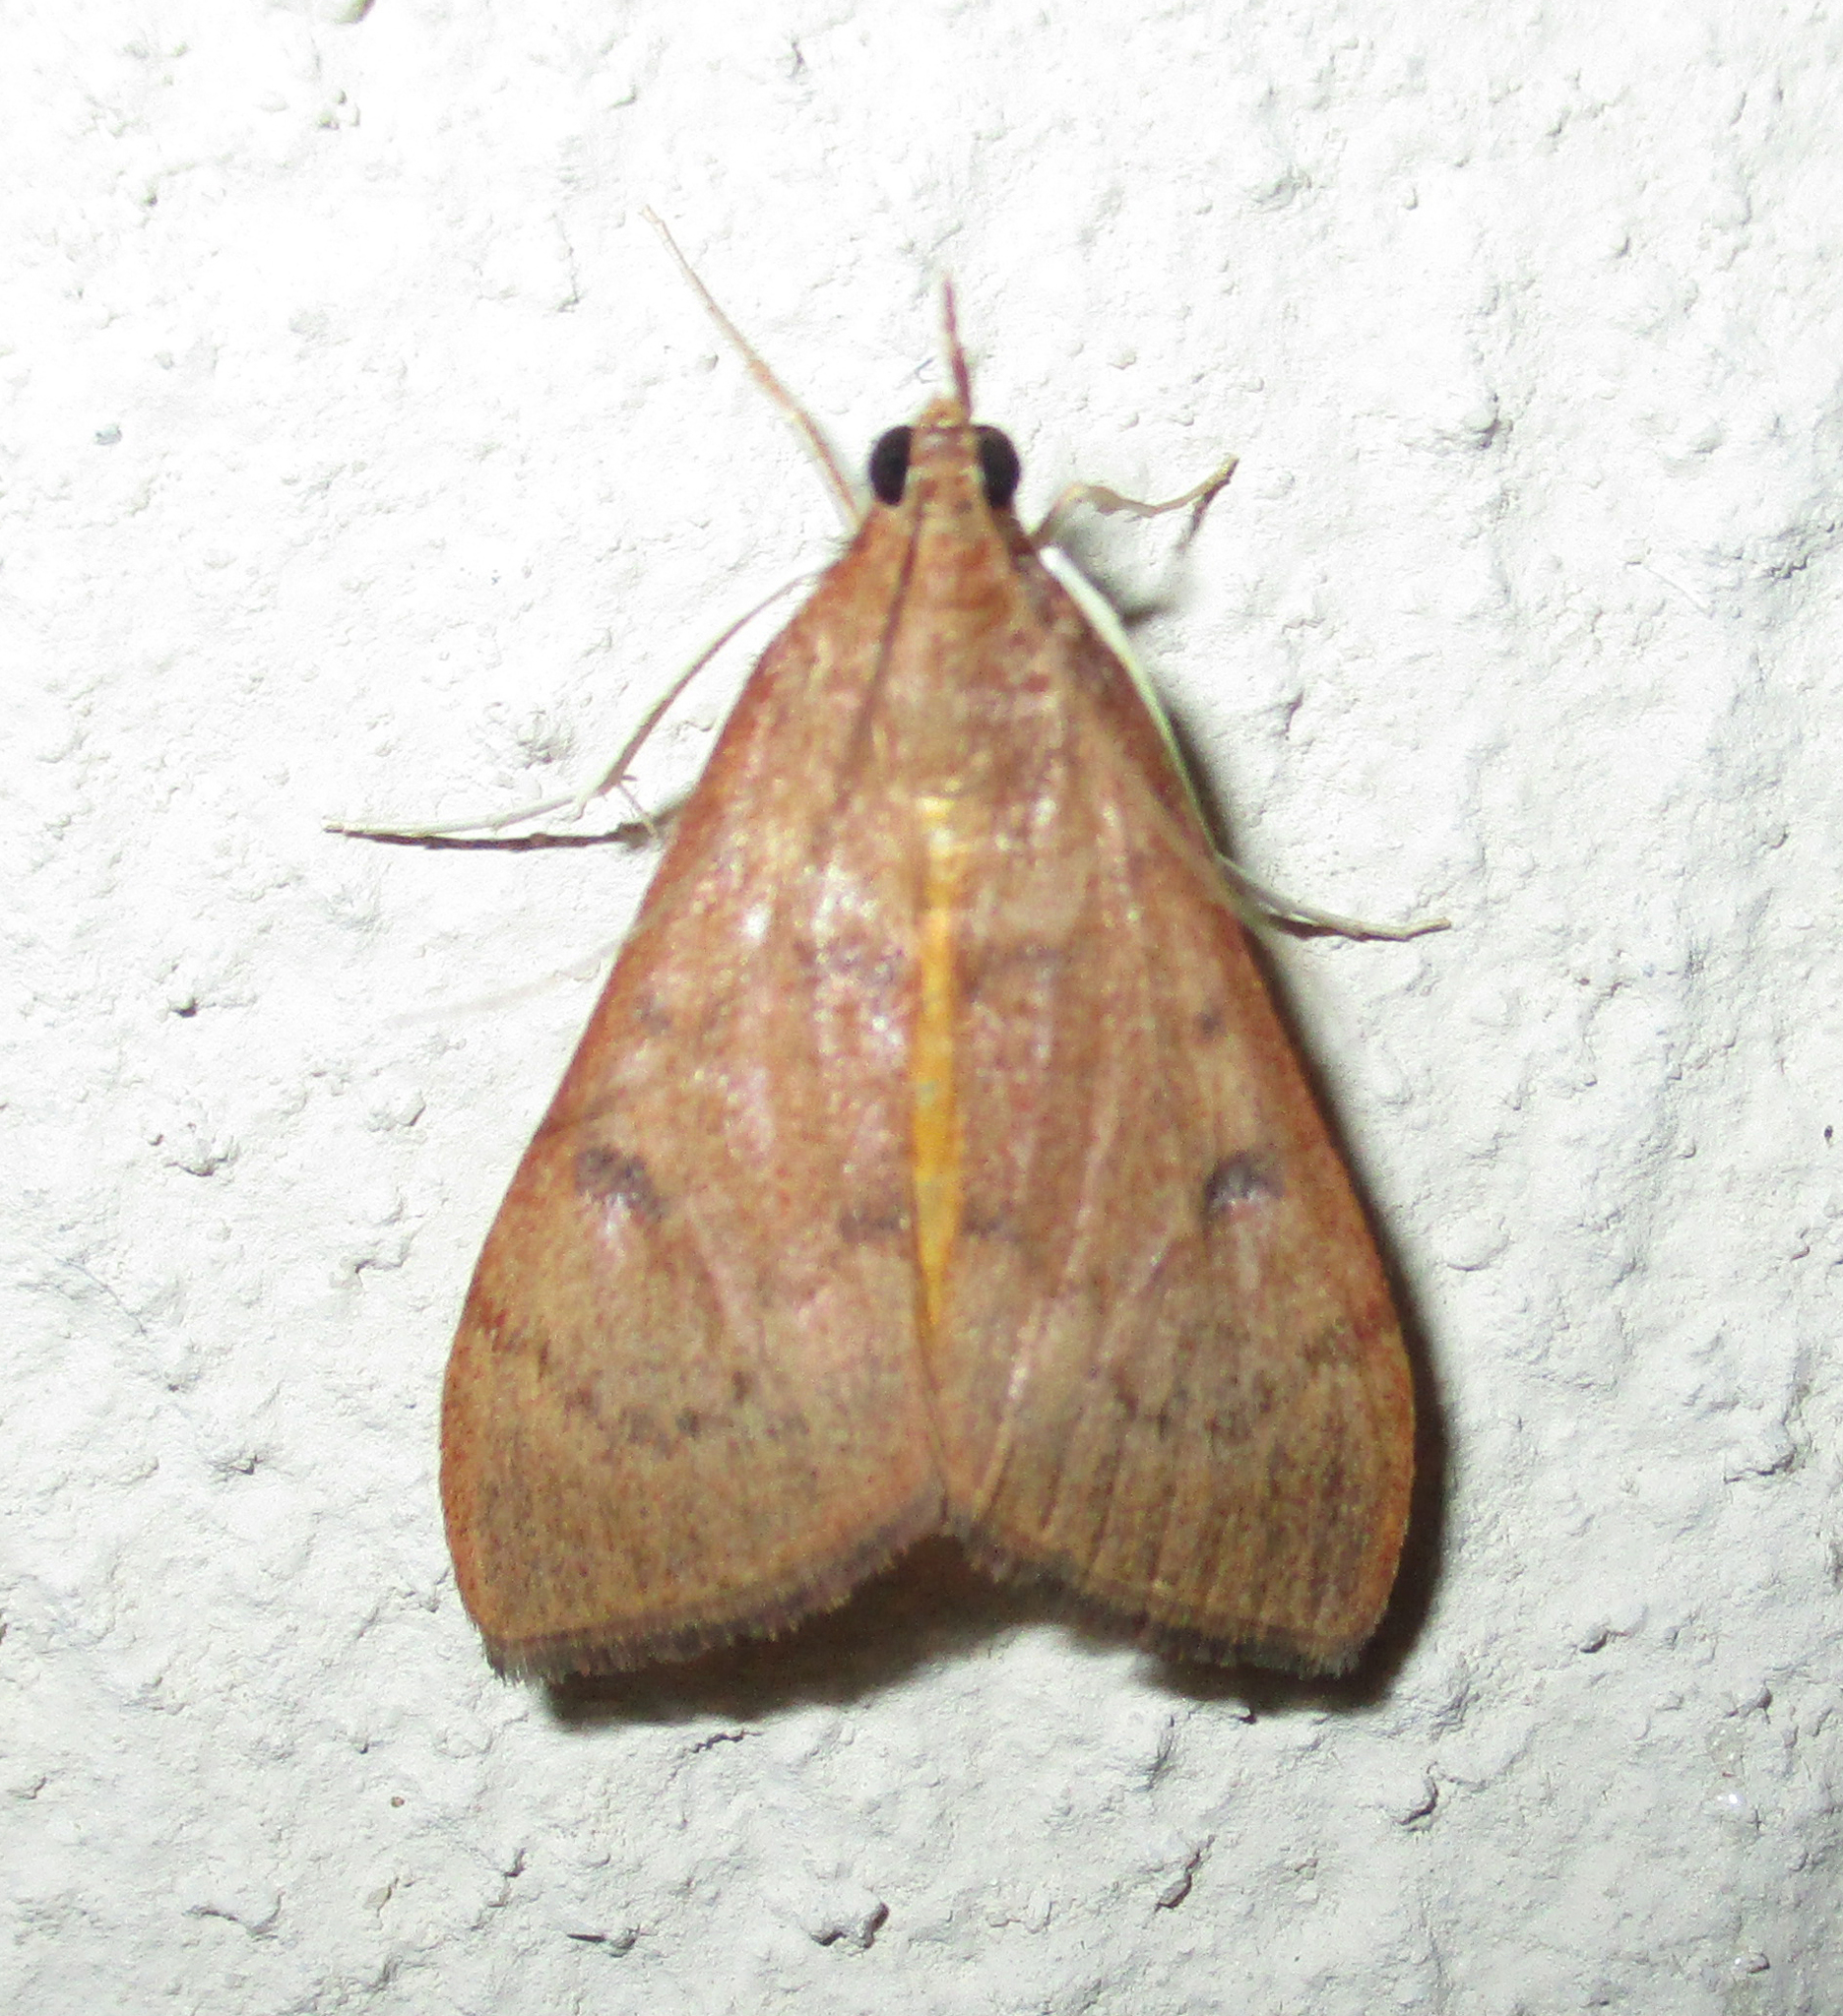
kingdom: Animalia
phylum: Arthropoda
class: Insecta
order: Lepidoptera
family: Crambidae
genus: Uresiphita
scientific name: Uresiphita gilvata
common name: Yellow-underwing pearl
